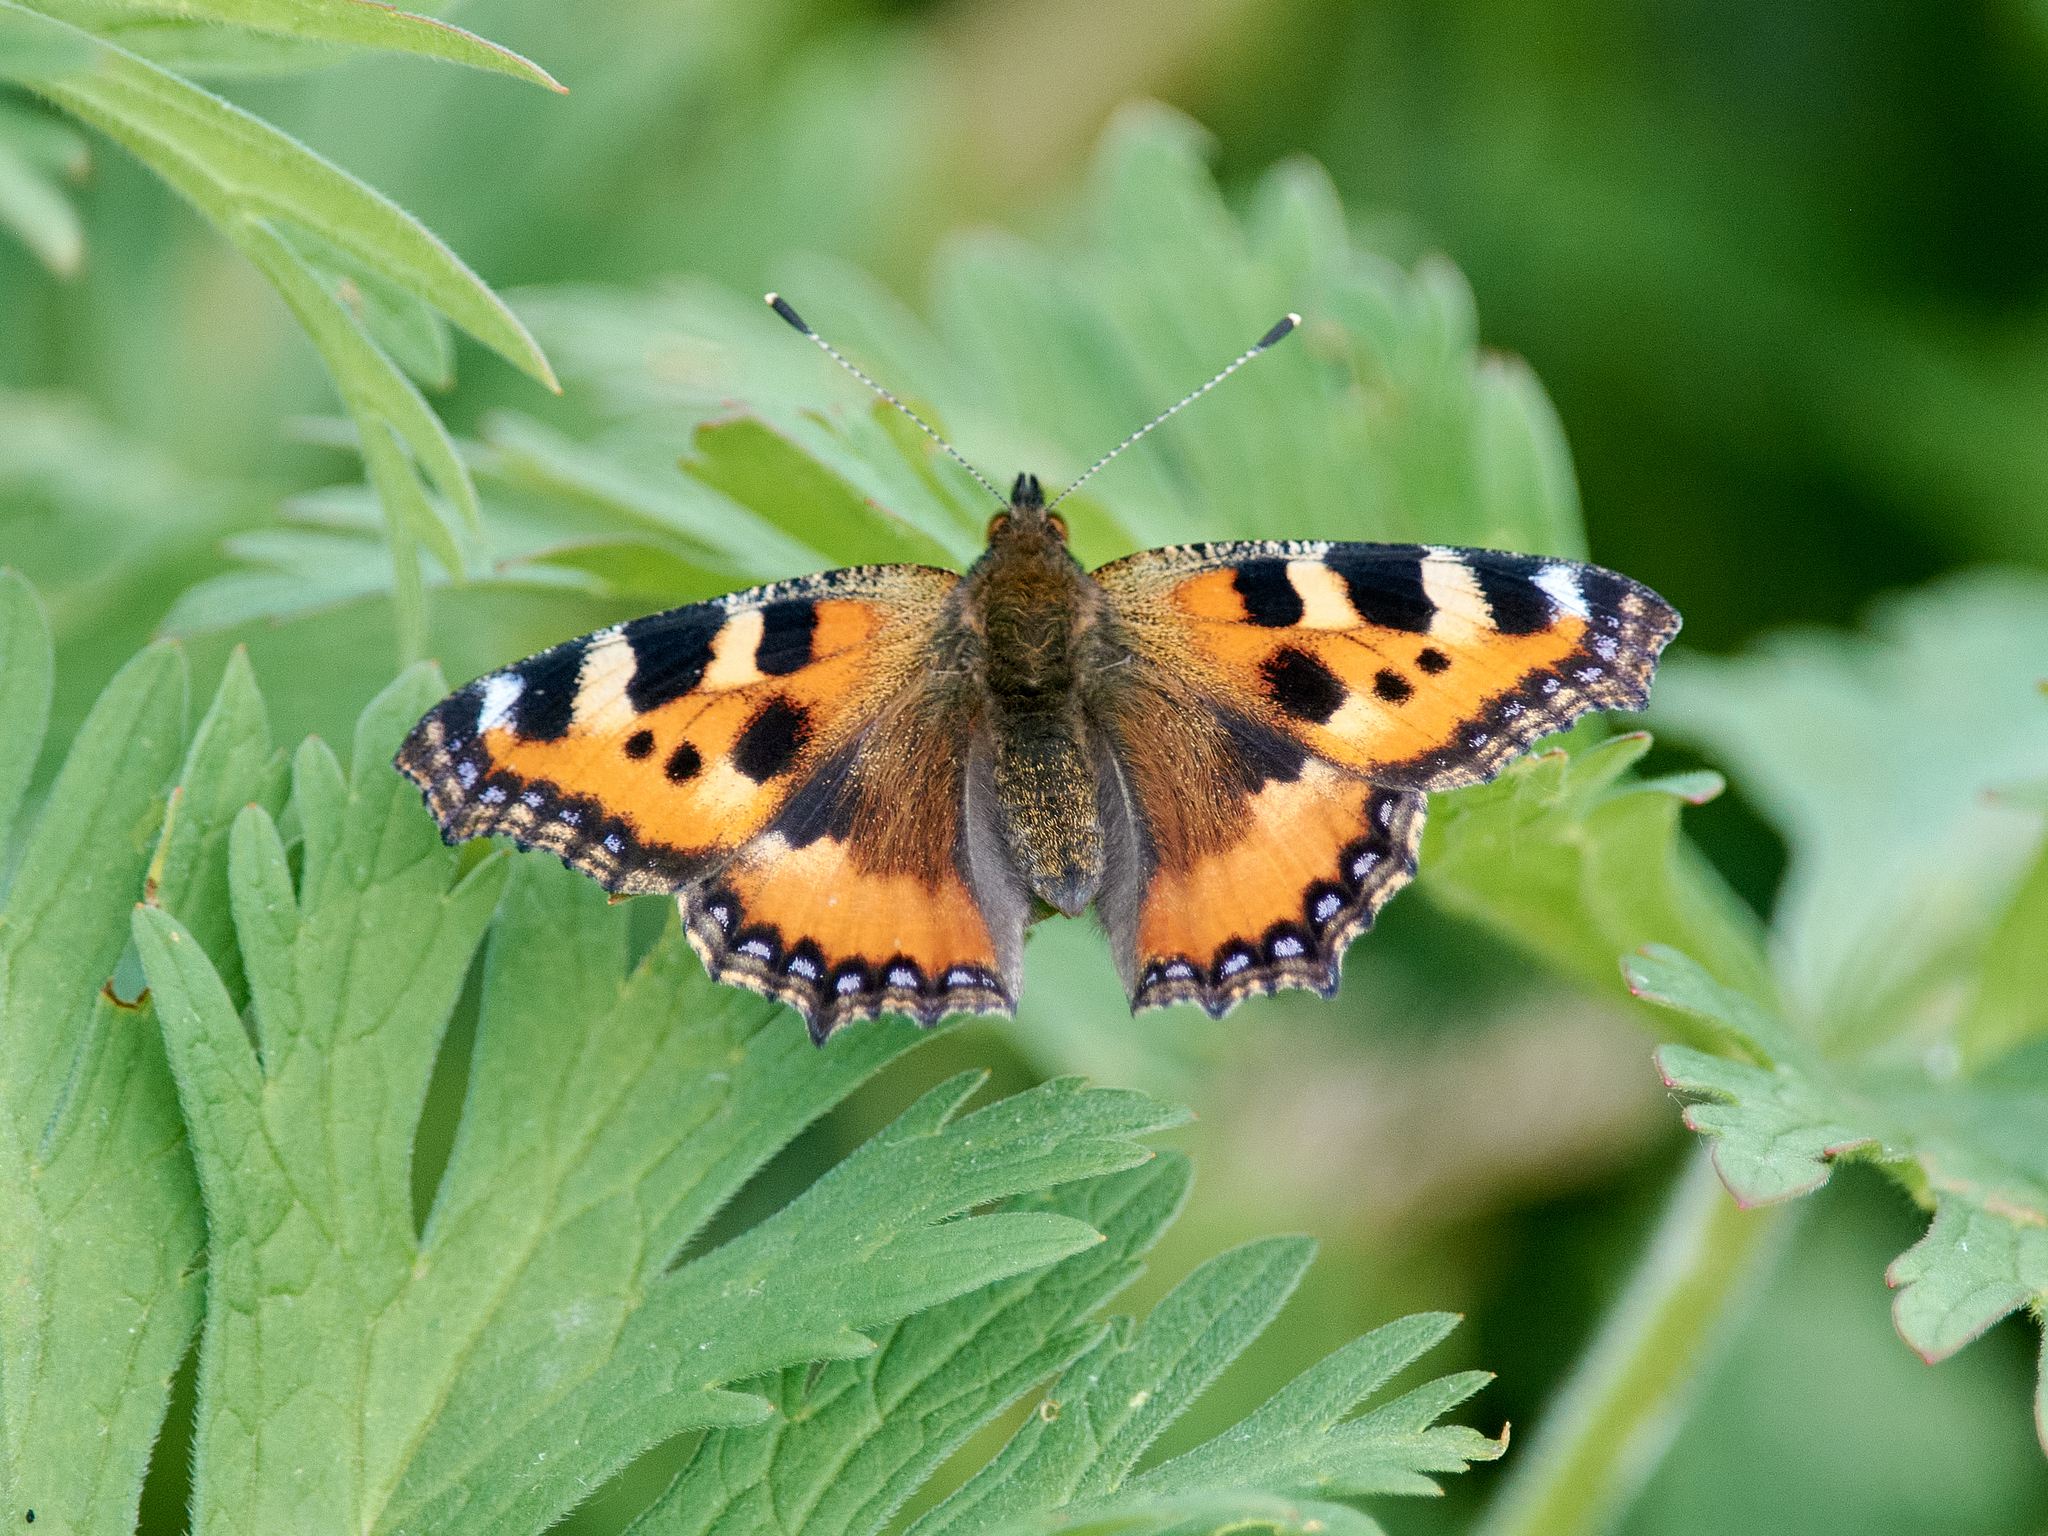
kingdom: Animalia
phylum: Arthropoda
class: Insecta
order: Lepidoptera
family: Nymphalidae
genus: Aglais
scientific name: Aglais urticae
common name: Small tortoiseshell
